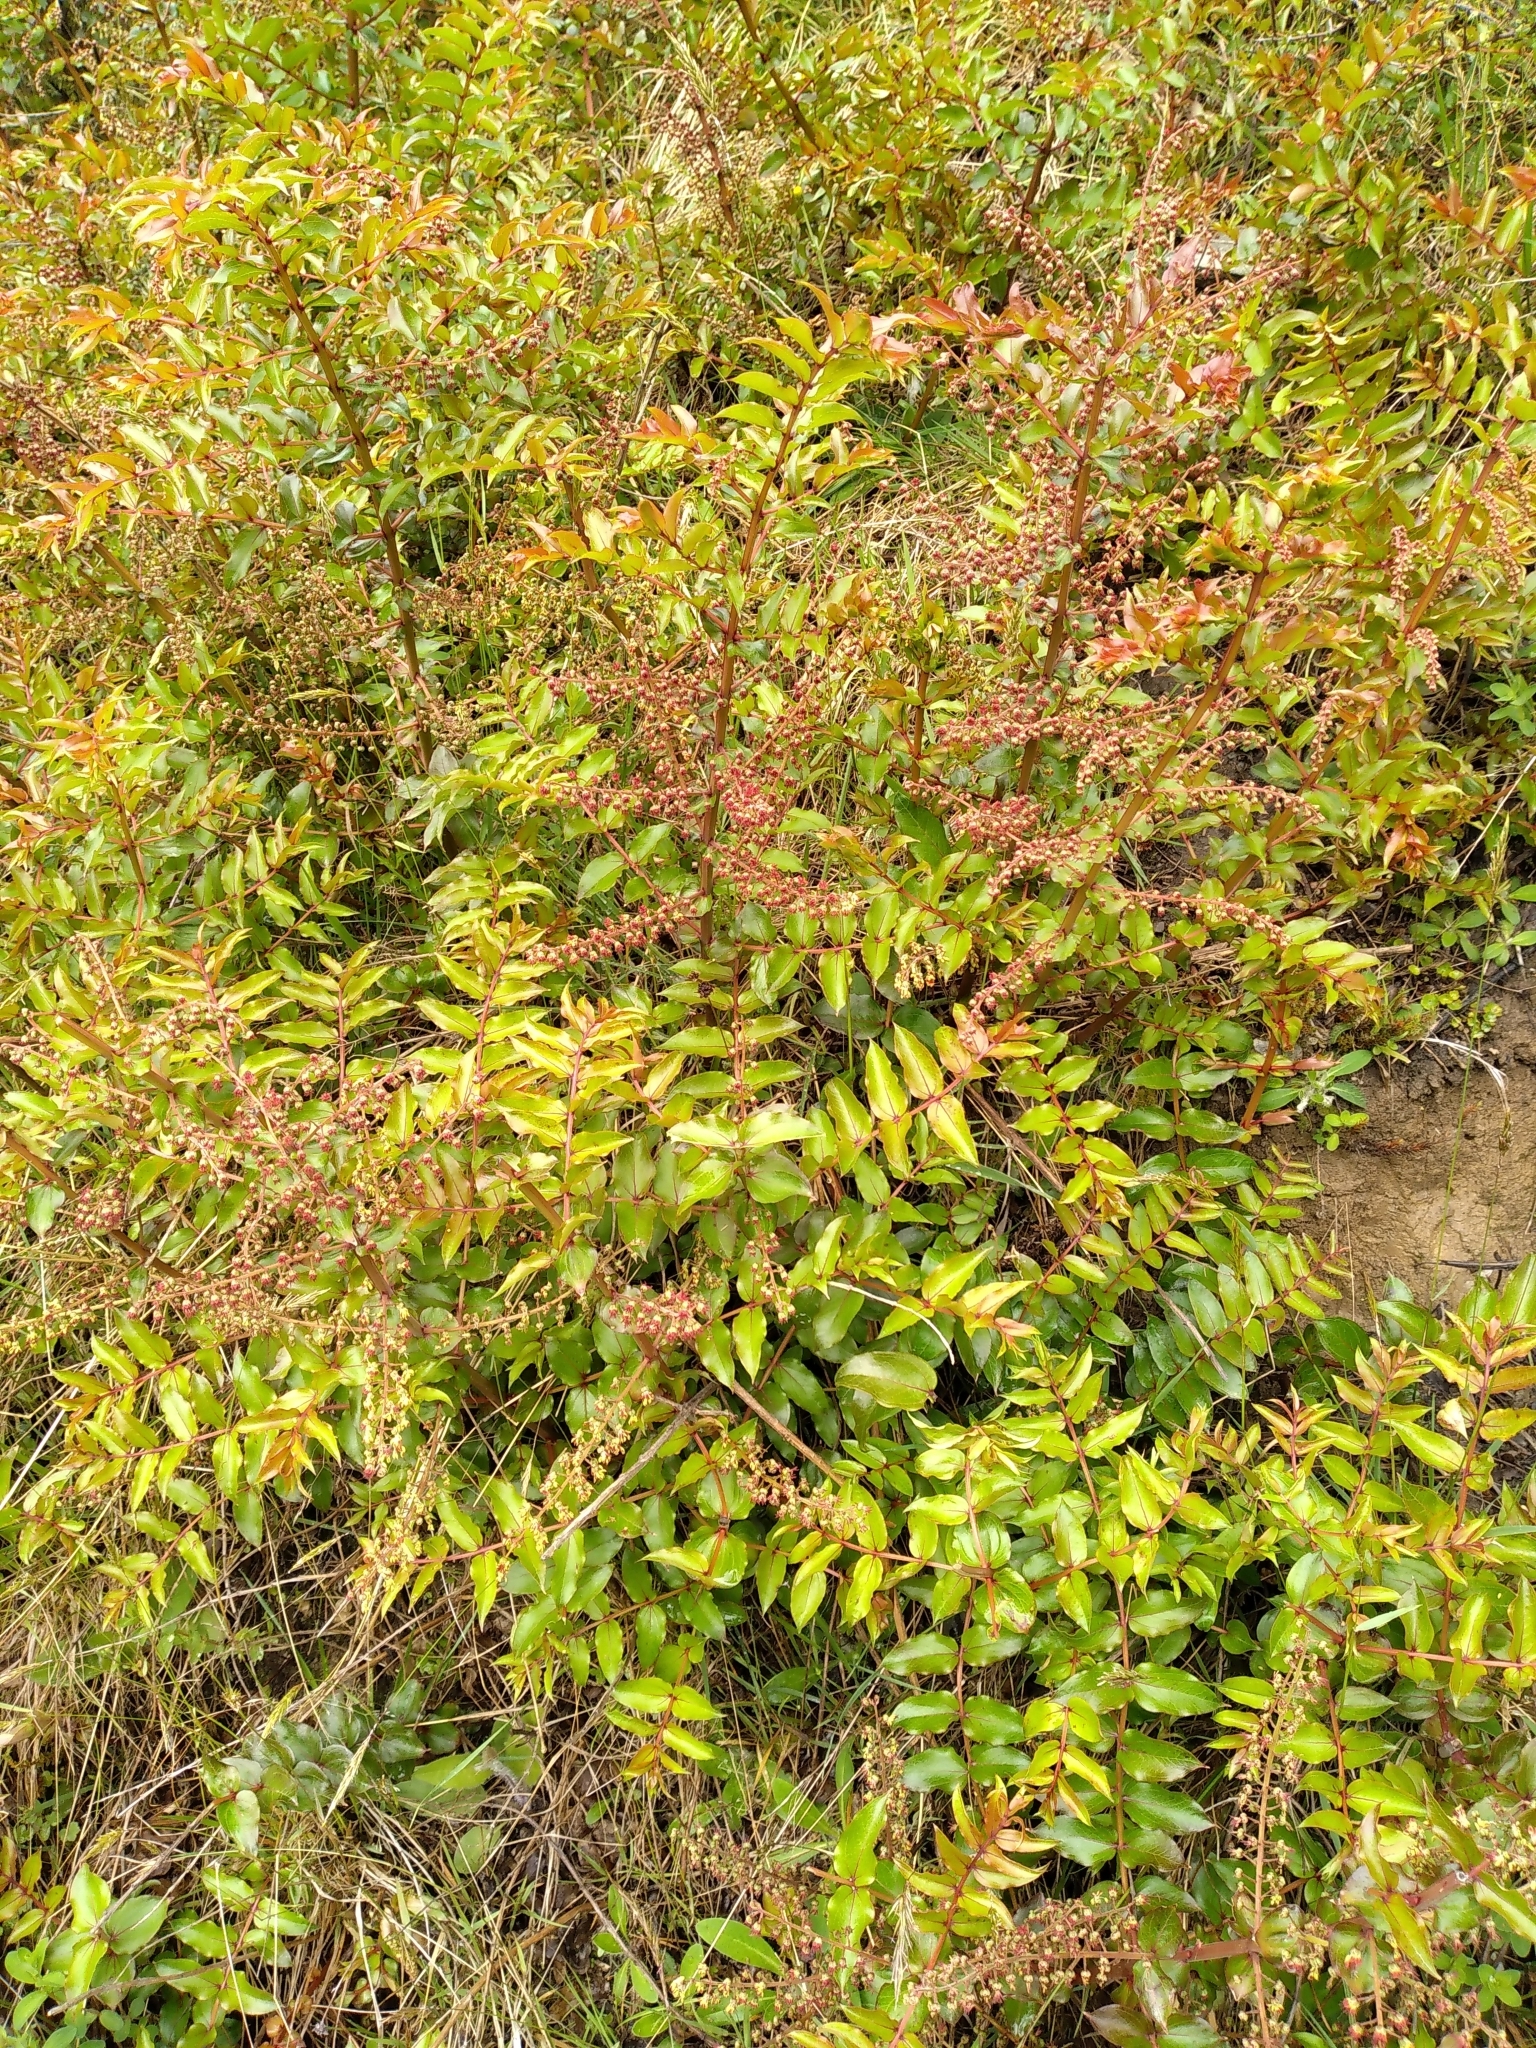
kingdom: Plantae
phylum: Tracheophyta
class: Magnoliopsida
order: Cucurbitales
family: Coriariaceae
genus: Coriaria
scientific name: Coriaria sarmentosa
